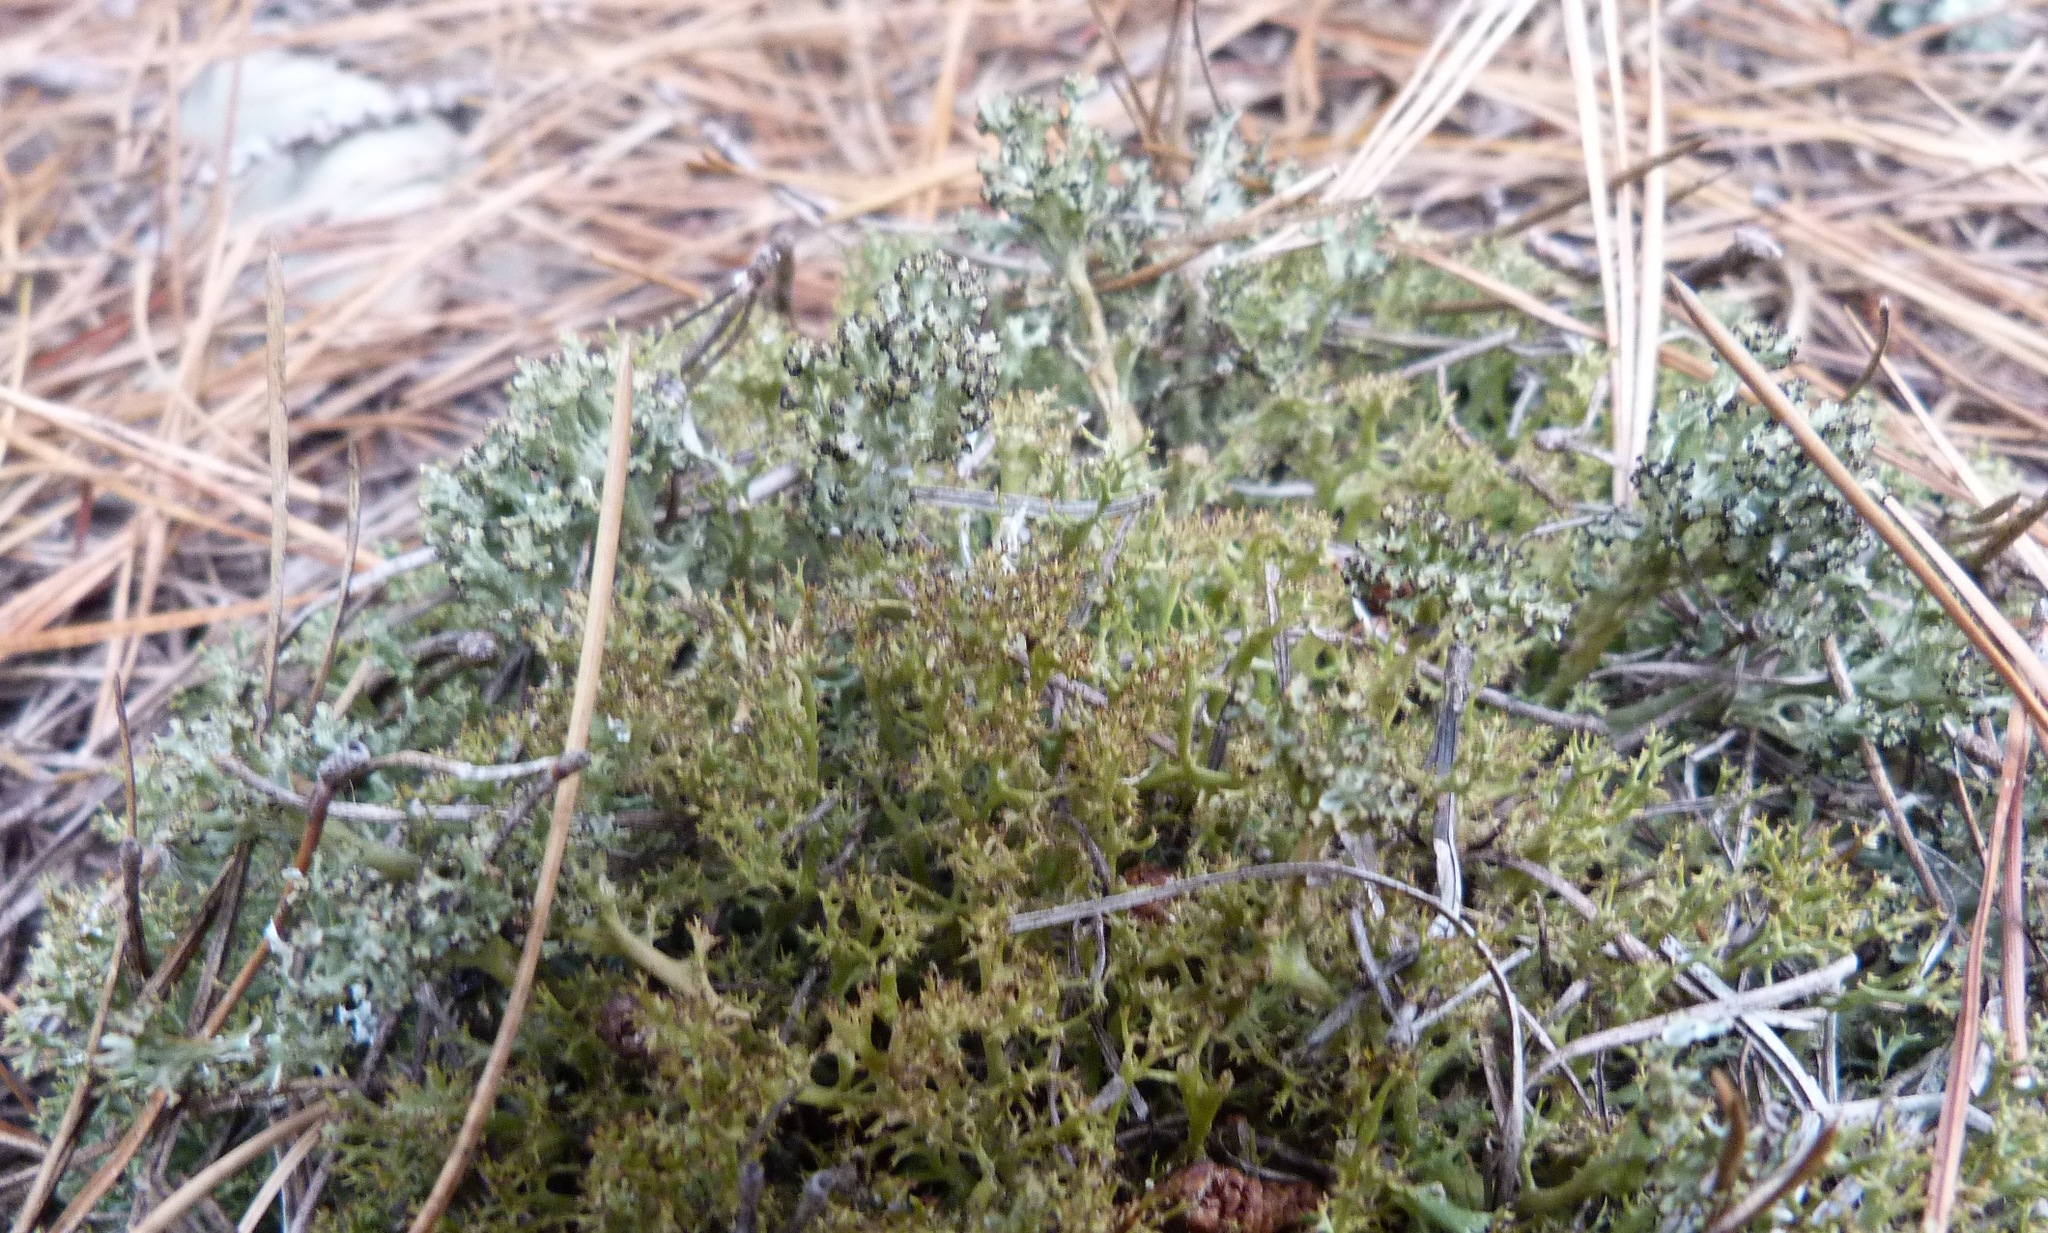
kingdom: Fungi
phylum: Ascomycota
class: Lecanoromycetes
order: Lecanorales
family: Cladoniaceae
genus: Cladia
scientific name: Cladia aggregata
